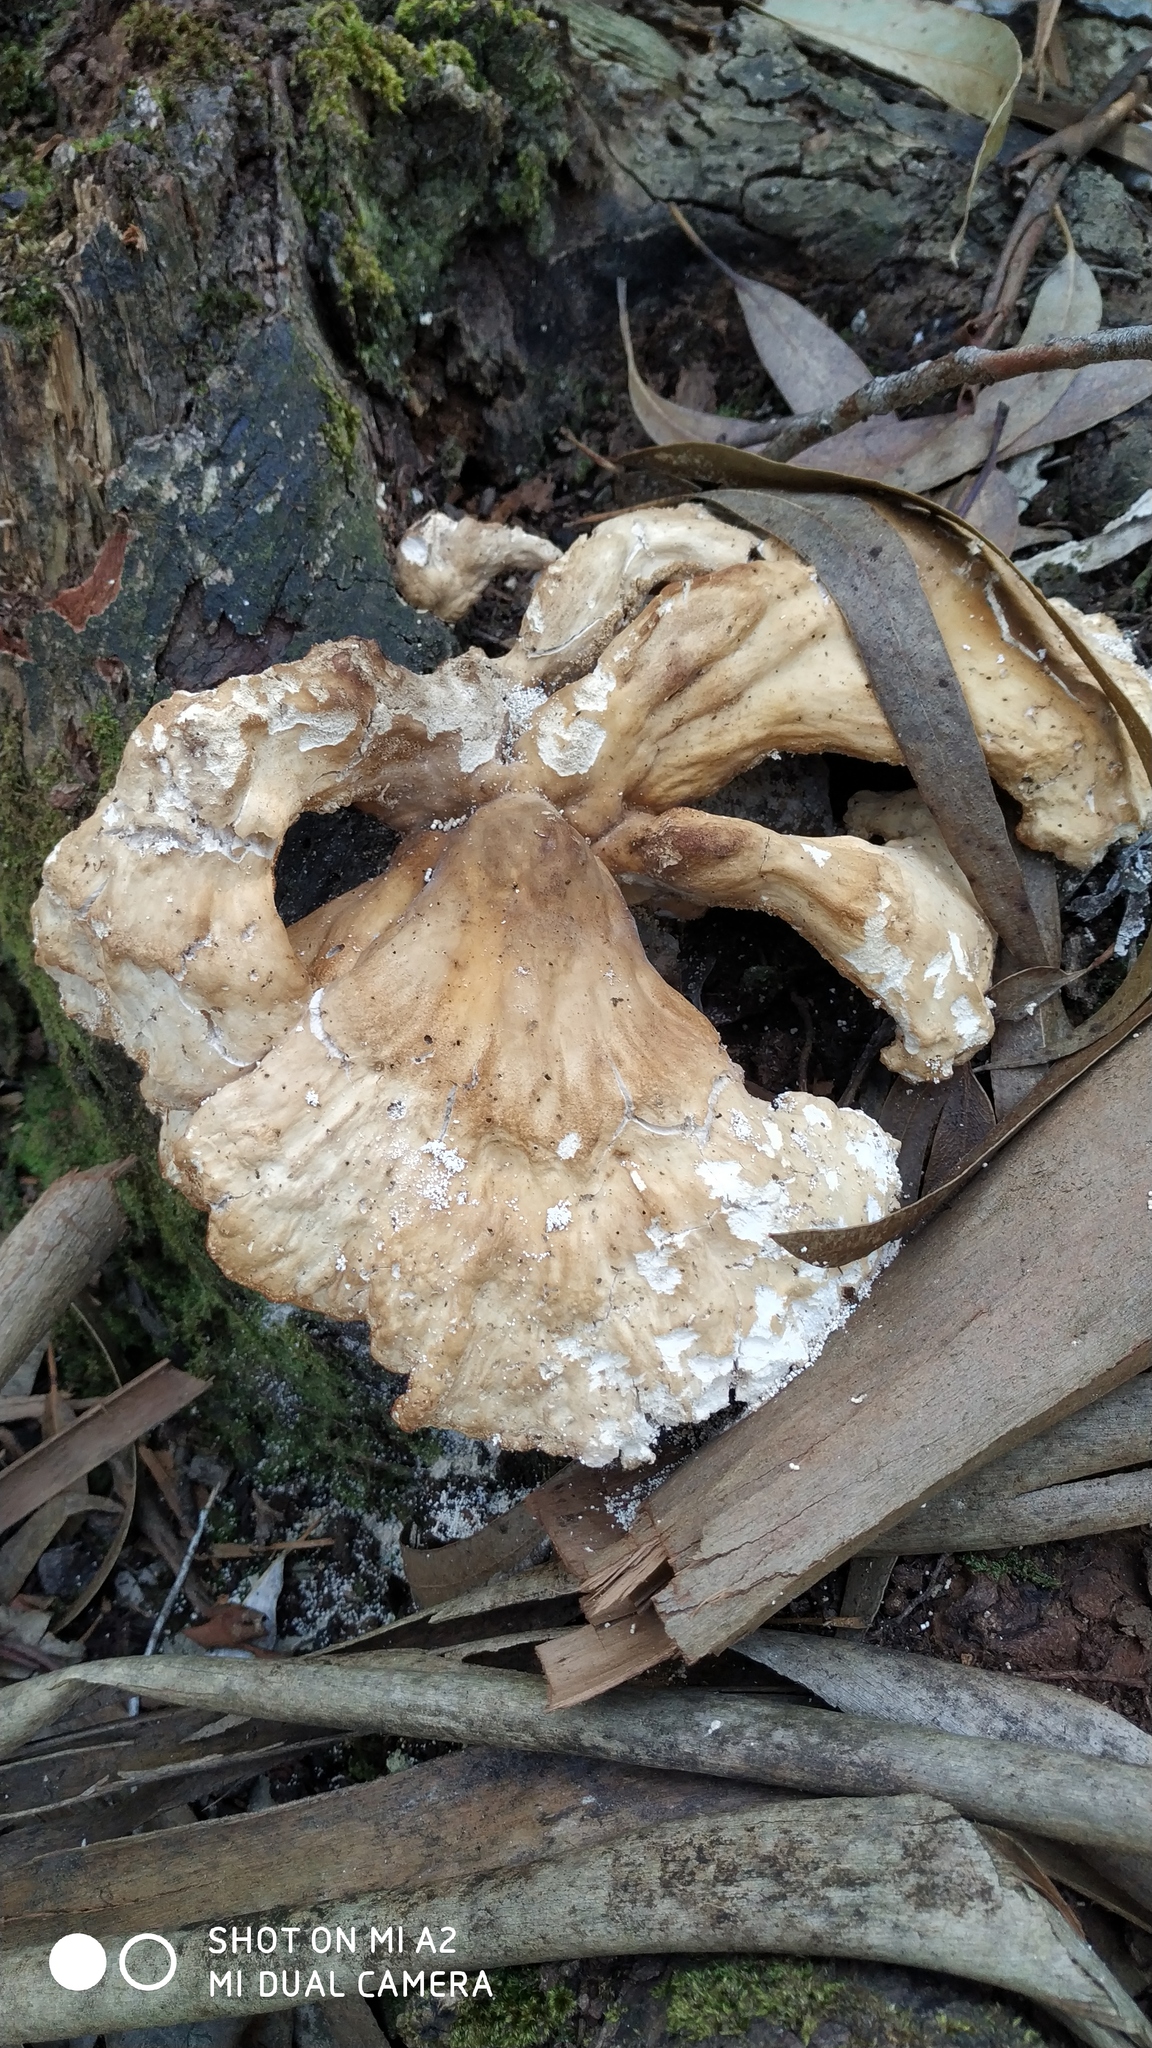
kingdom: Fungi
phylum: Basidiomycota
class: Agaricomycetes
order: Polyporales
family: Laetiporaceae
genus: Laetiporus
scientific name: Laetiporus sulphureus
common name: Chicken of the woods
